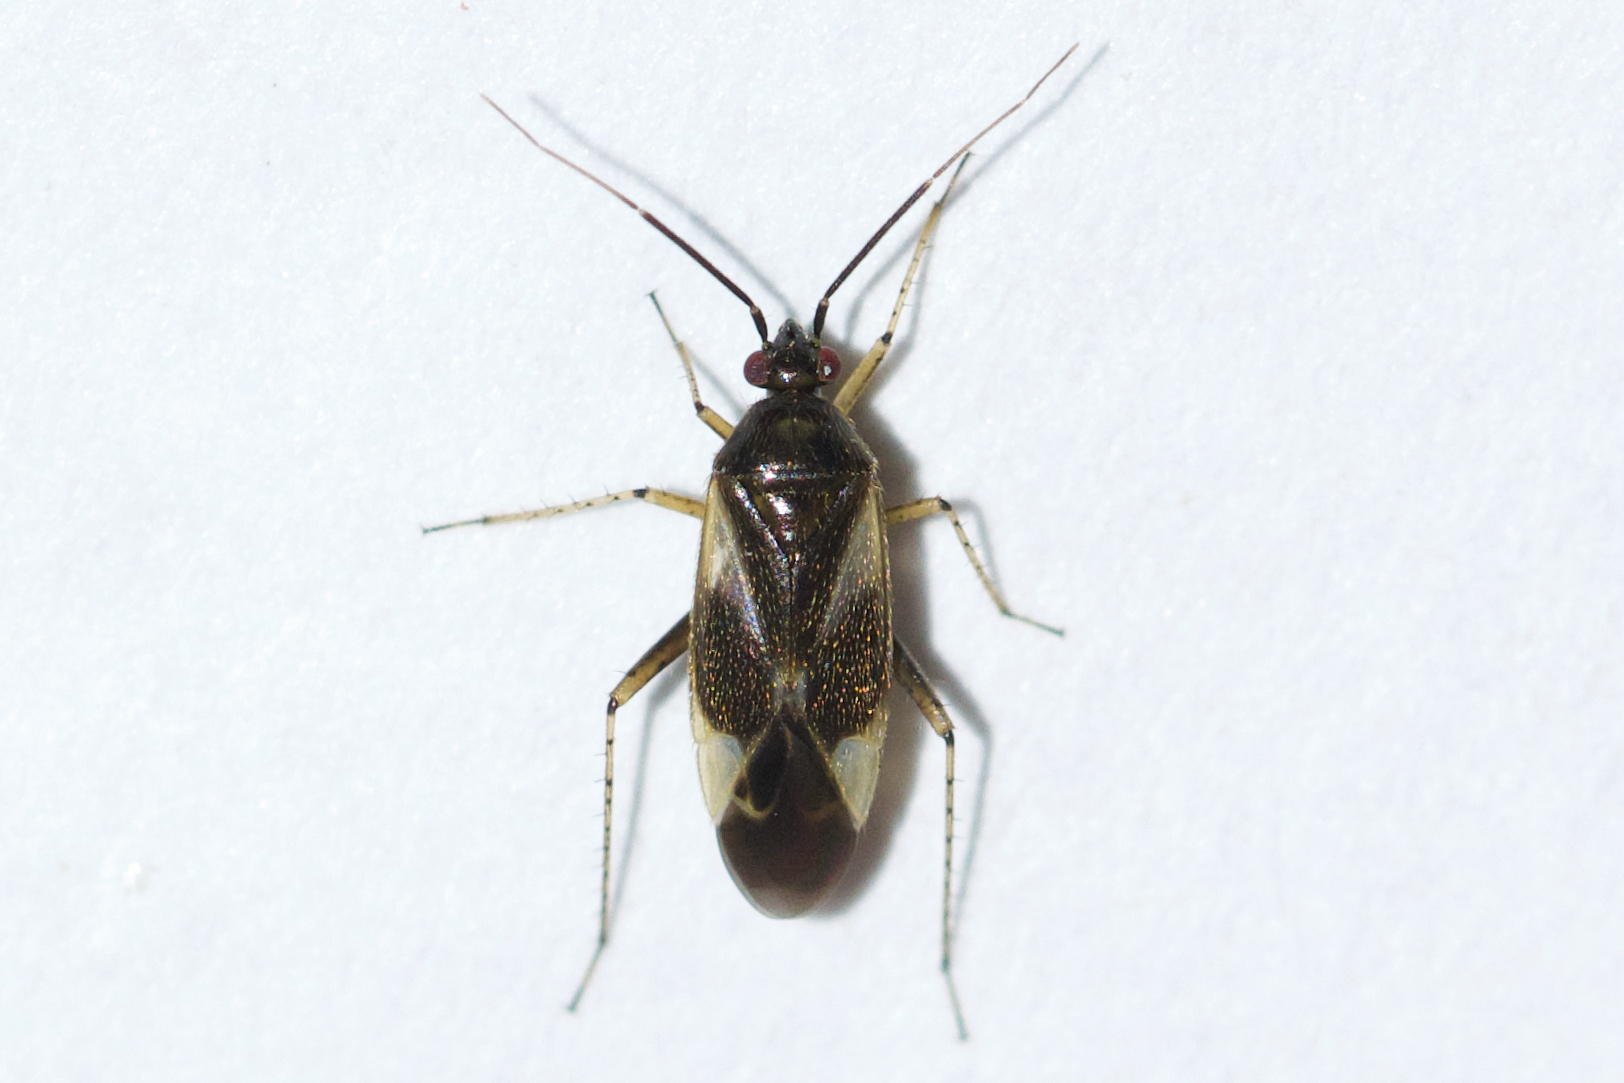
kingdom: Animalia
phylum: Arthropoda
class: Insecta
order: Hemiptera
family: Miridae
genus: Plagiognathus
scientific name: Plagiognathus obscurus
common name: Obscure plant bug
